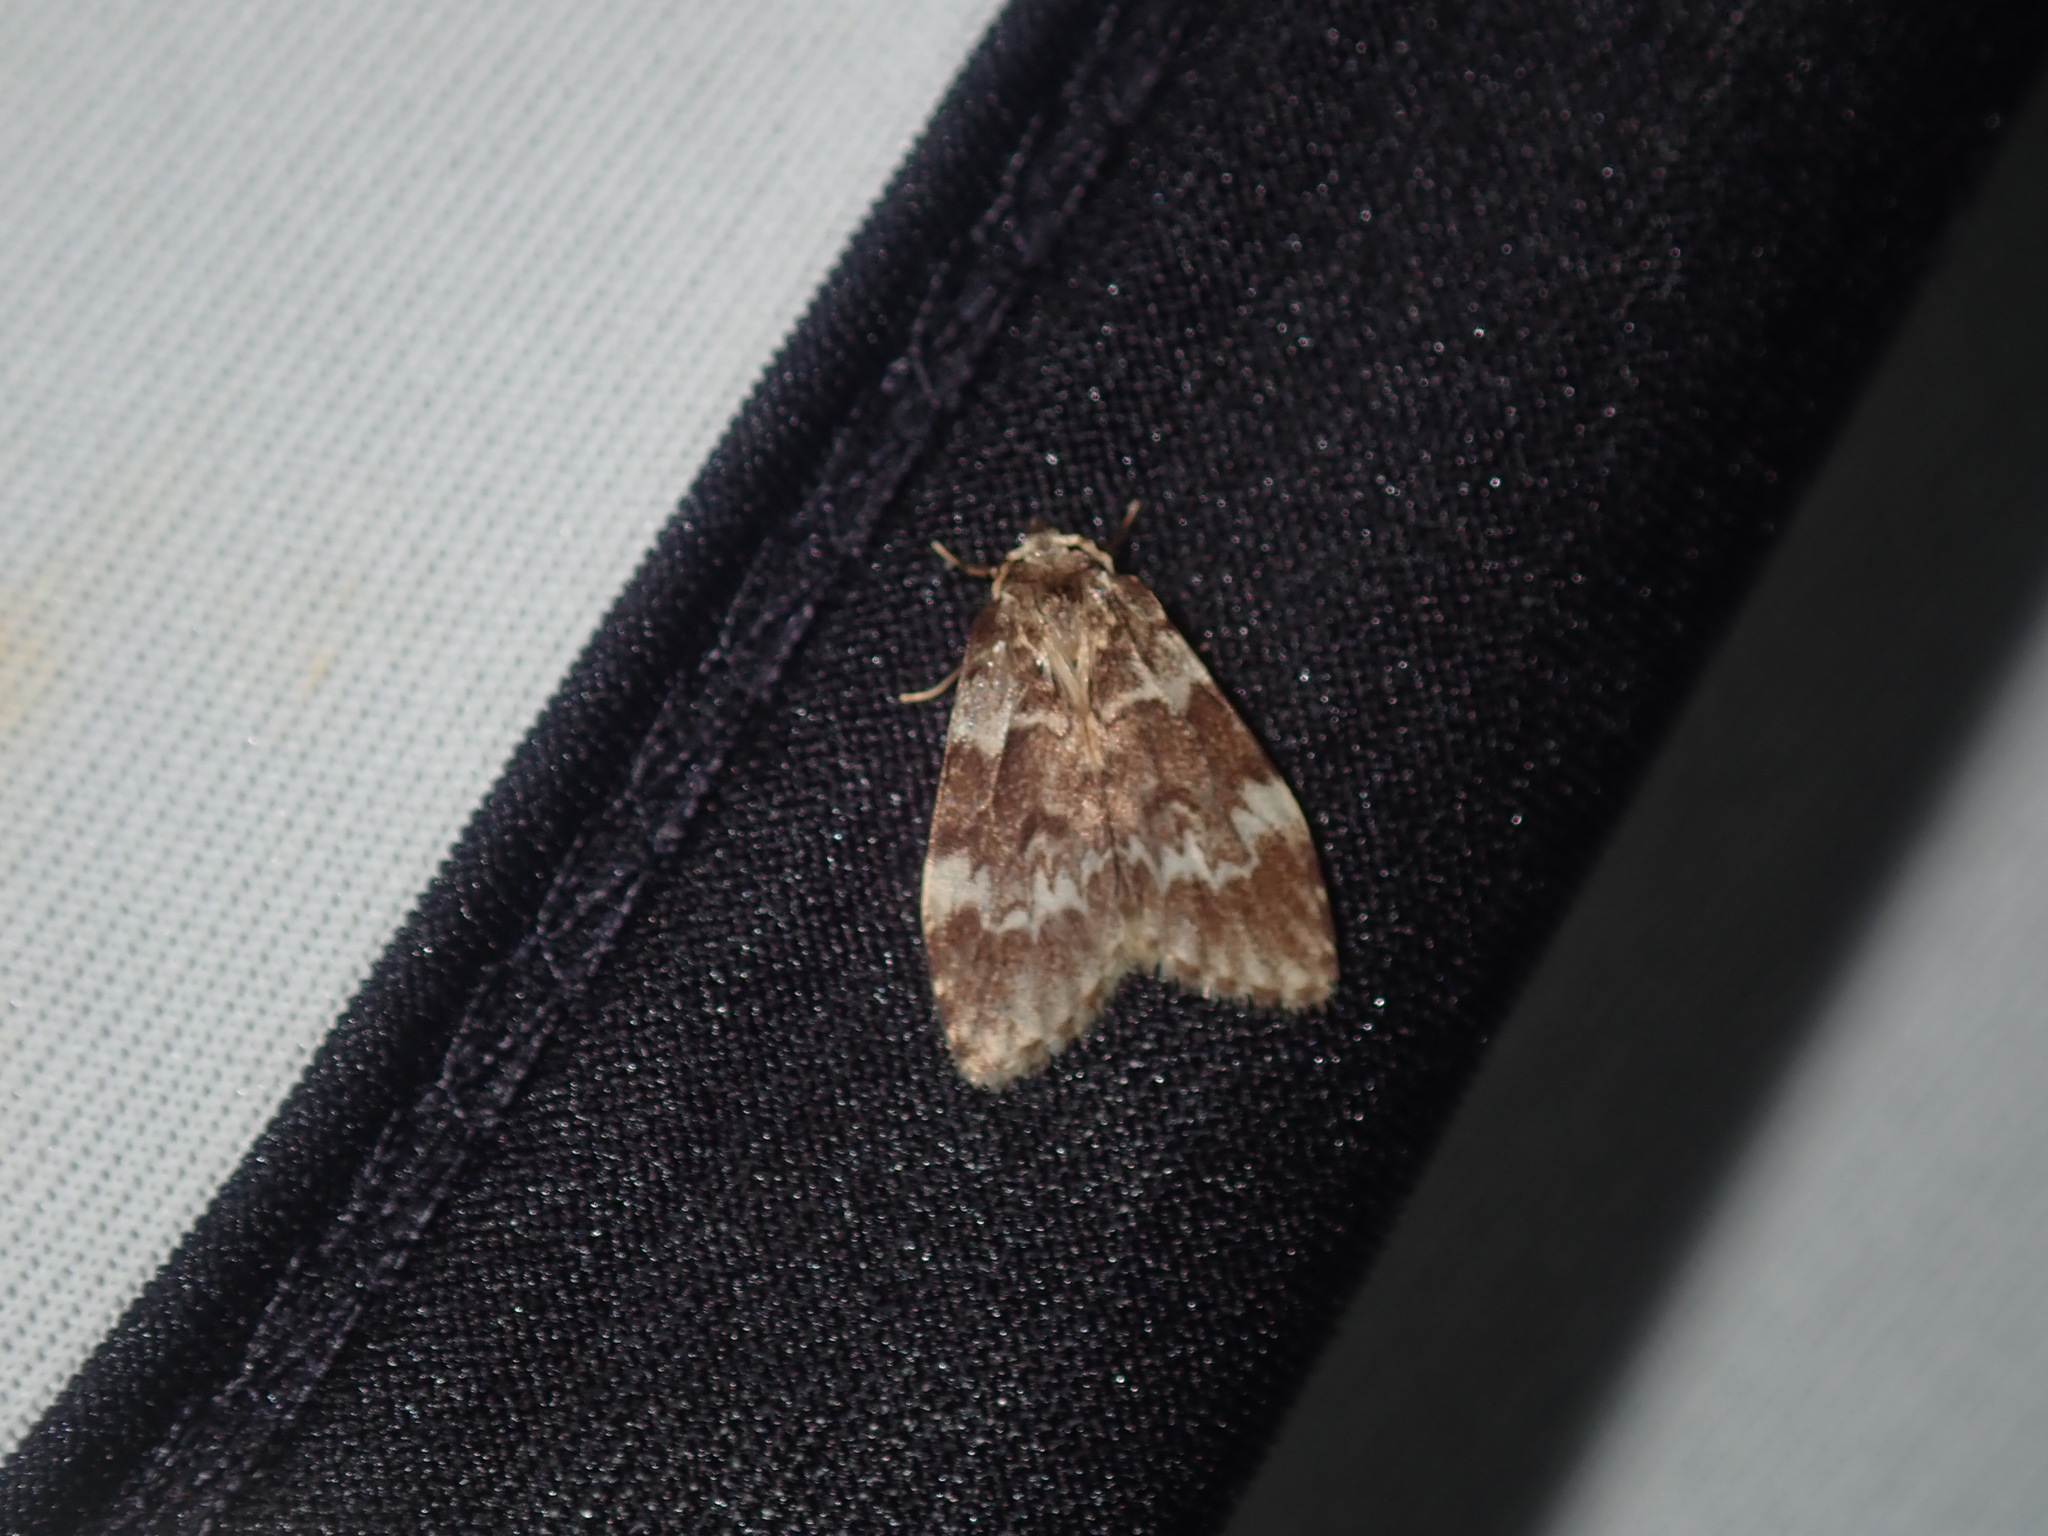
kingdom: Animalia
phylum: Arthropoda
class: Insecta
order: Lepidoptera
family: Erebidae
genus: Scaphidriotis
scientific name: Scaphidriotis xylogramma
